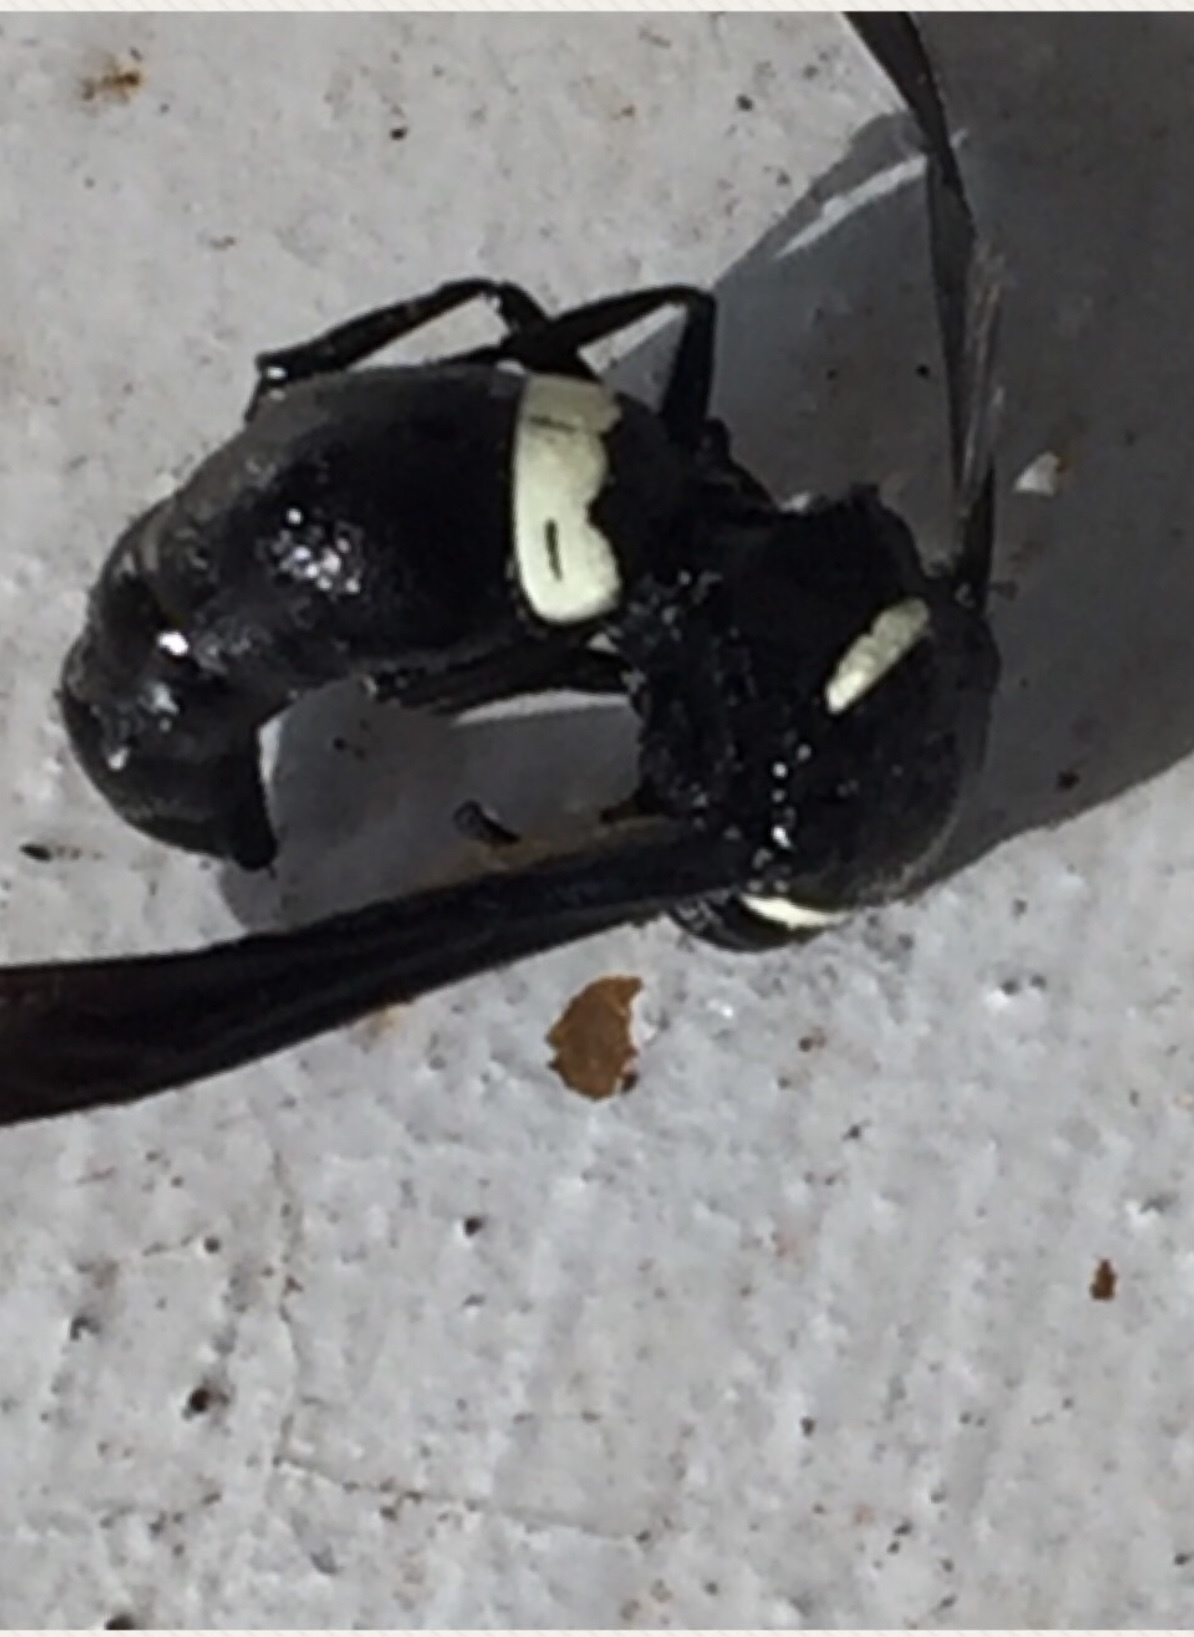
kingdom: Animalia
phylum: Arthropoda
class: Insecta
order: Hymenoptera
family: Eumenidae
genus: Monobia
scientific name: Monobia quadridens
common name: Four-toothed mason wasp
